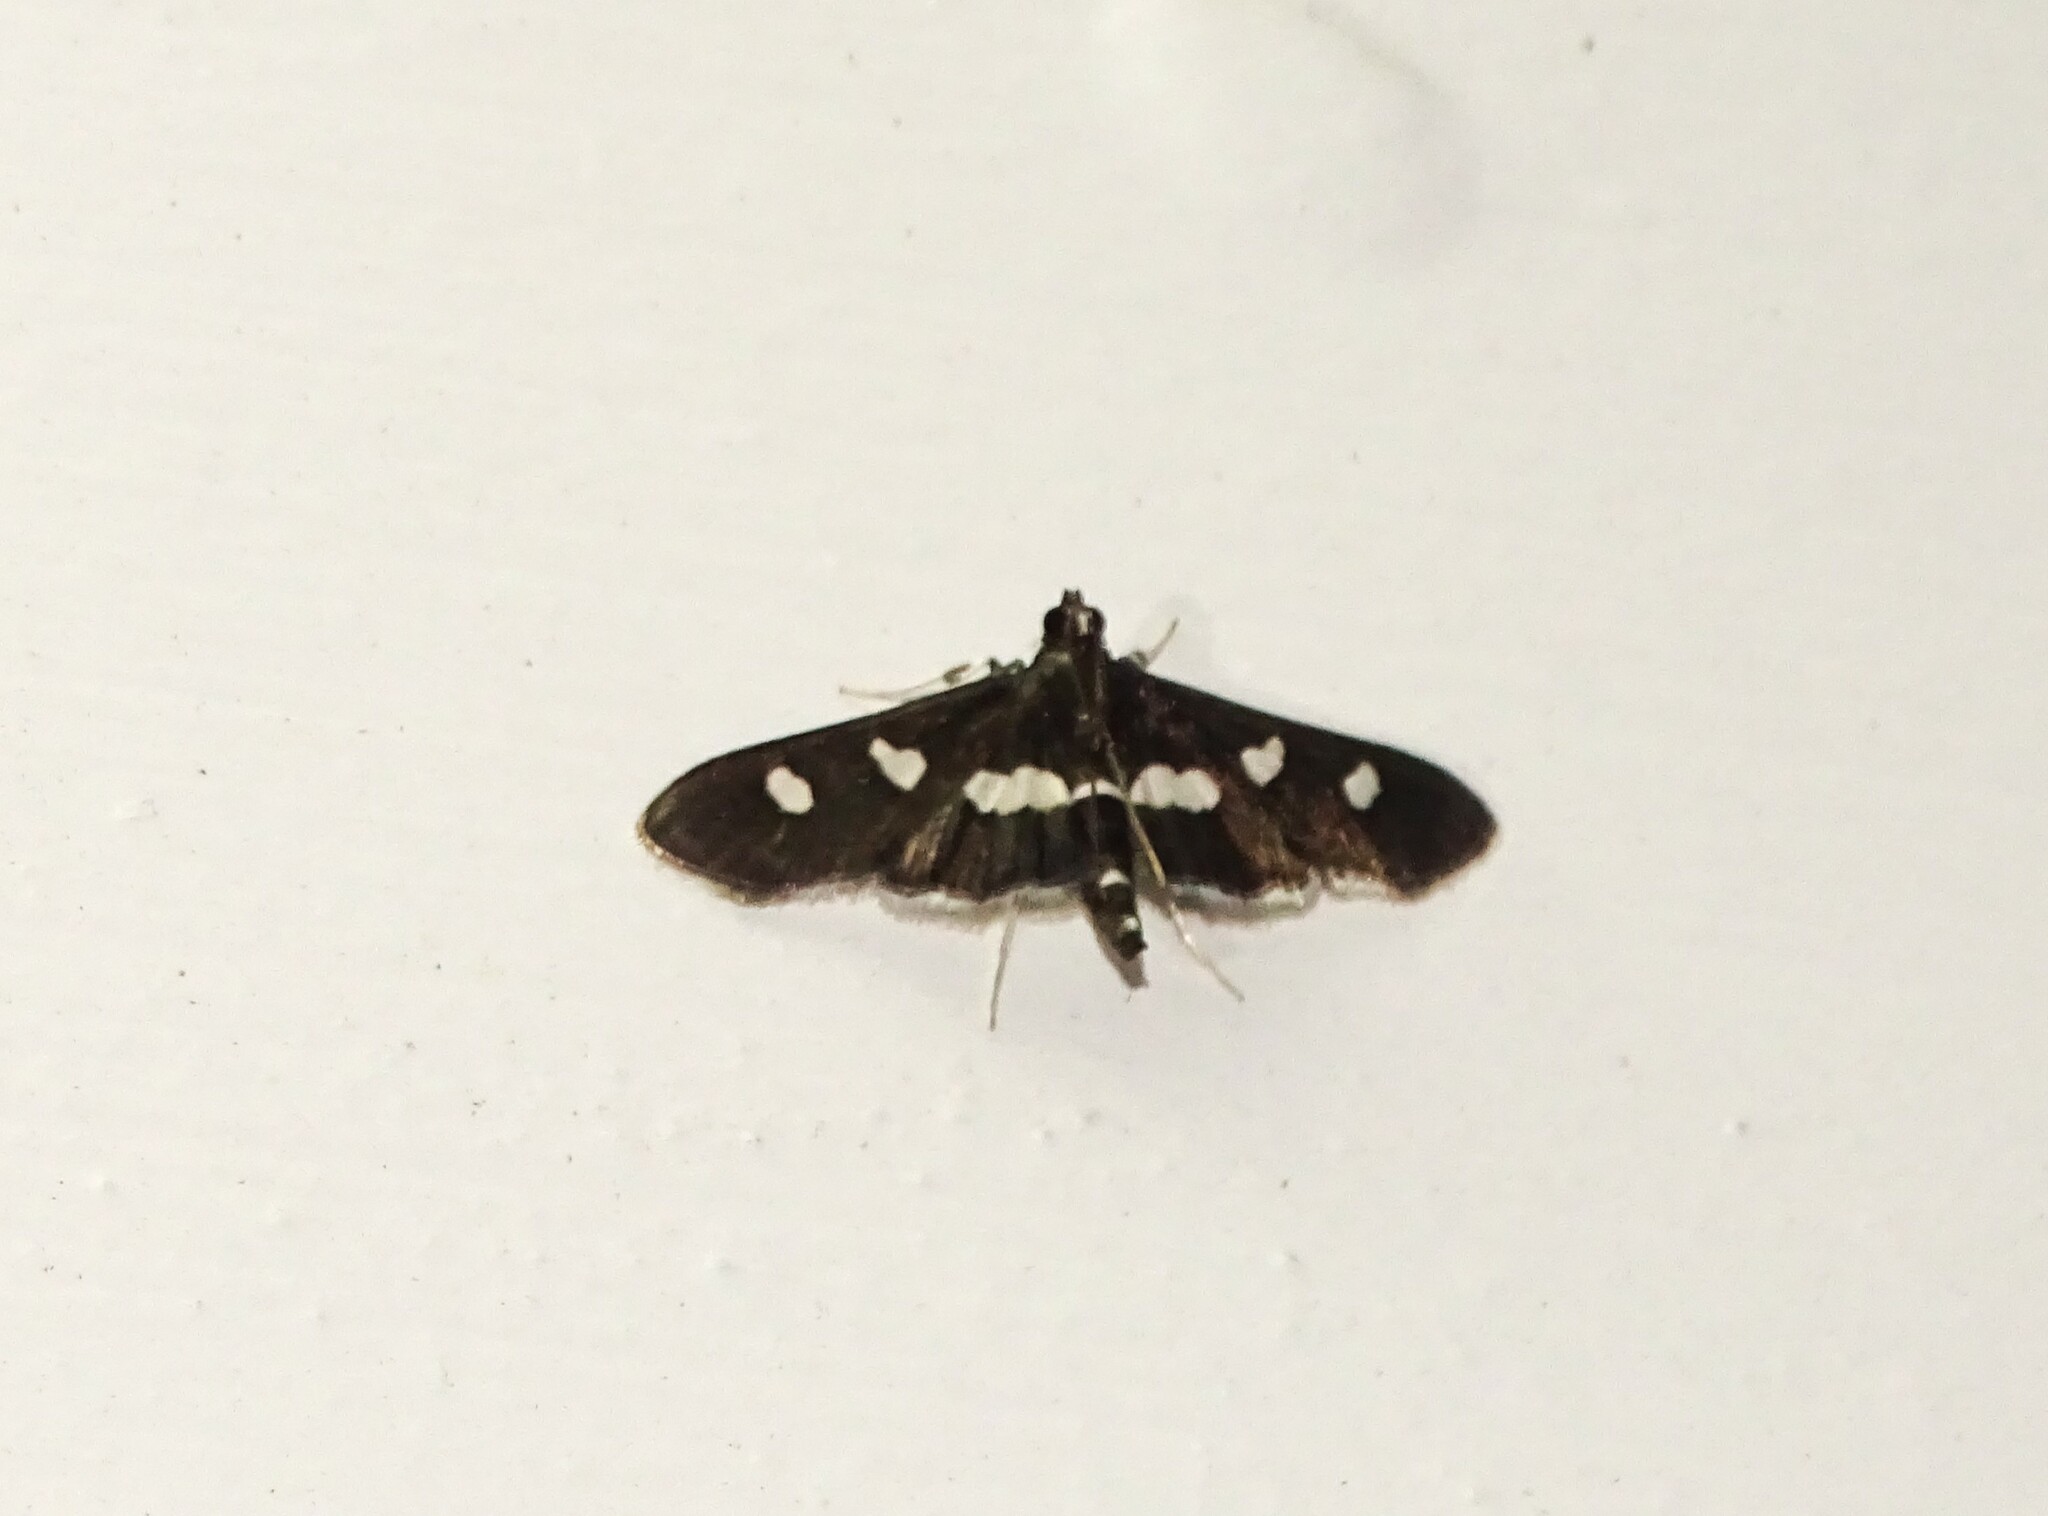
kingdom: Animalia
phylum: Arthropoda
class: Insecta
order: Lepidoptera
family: Crambidae
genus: Desmia
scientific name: Desmia
